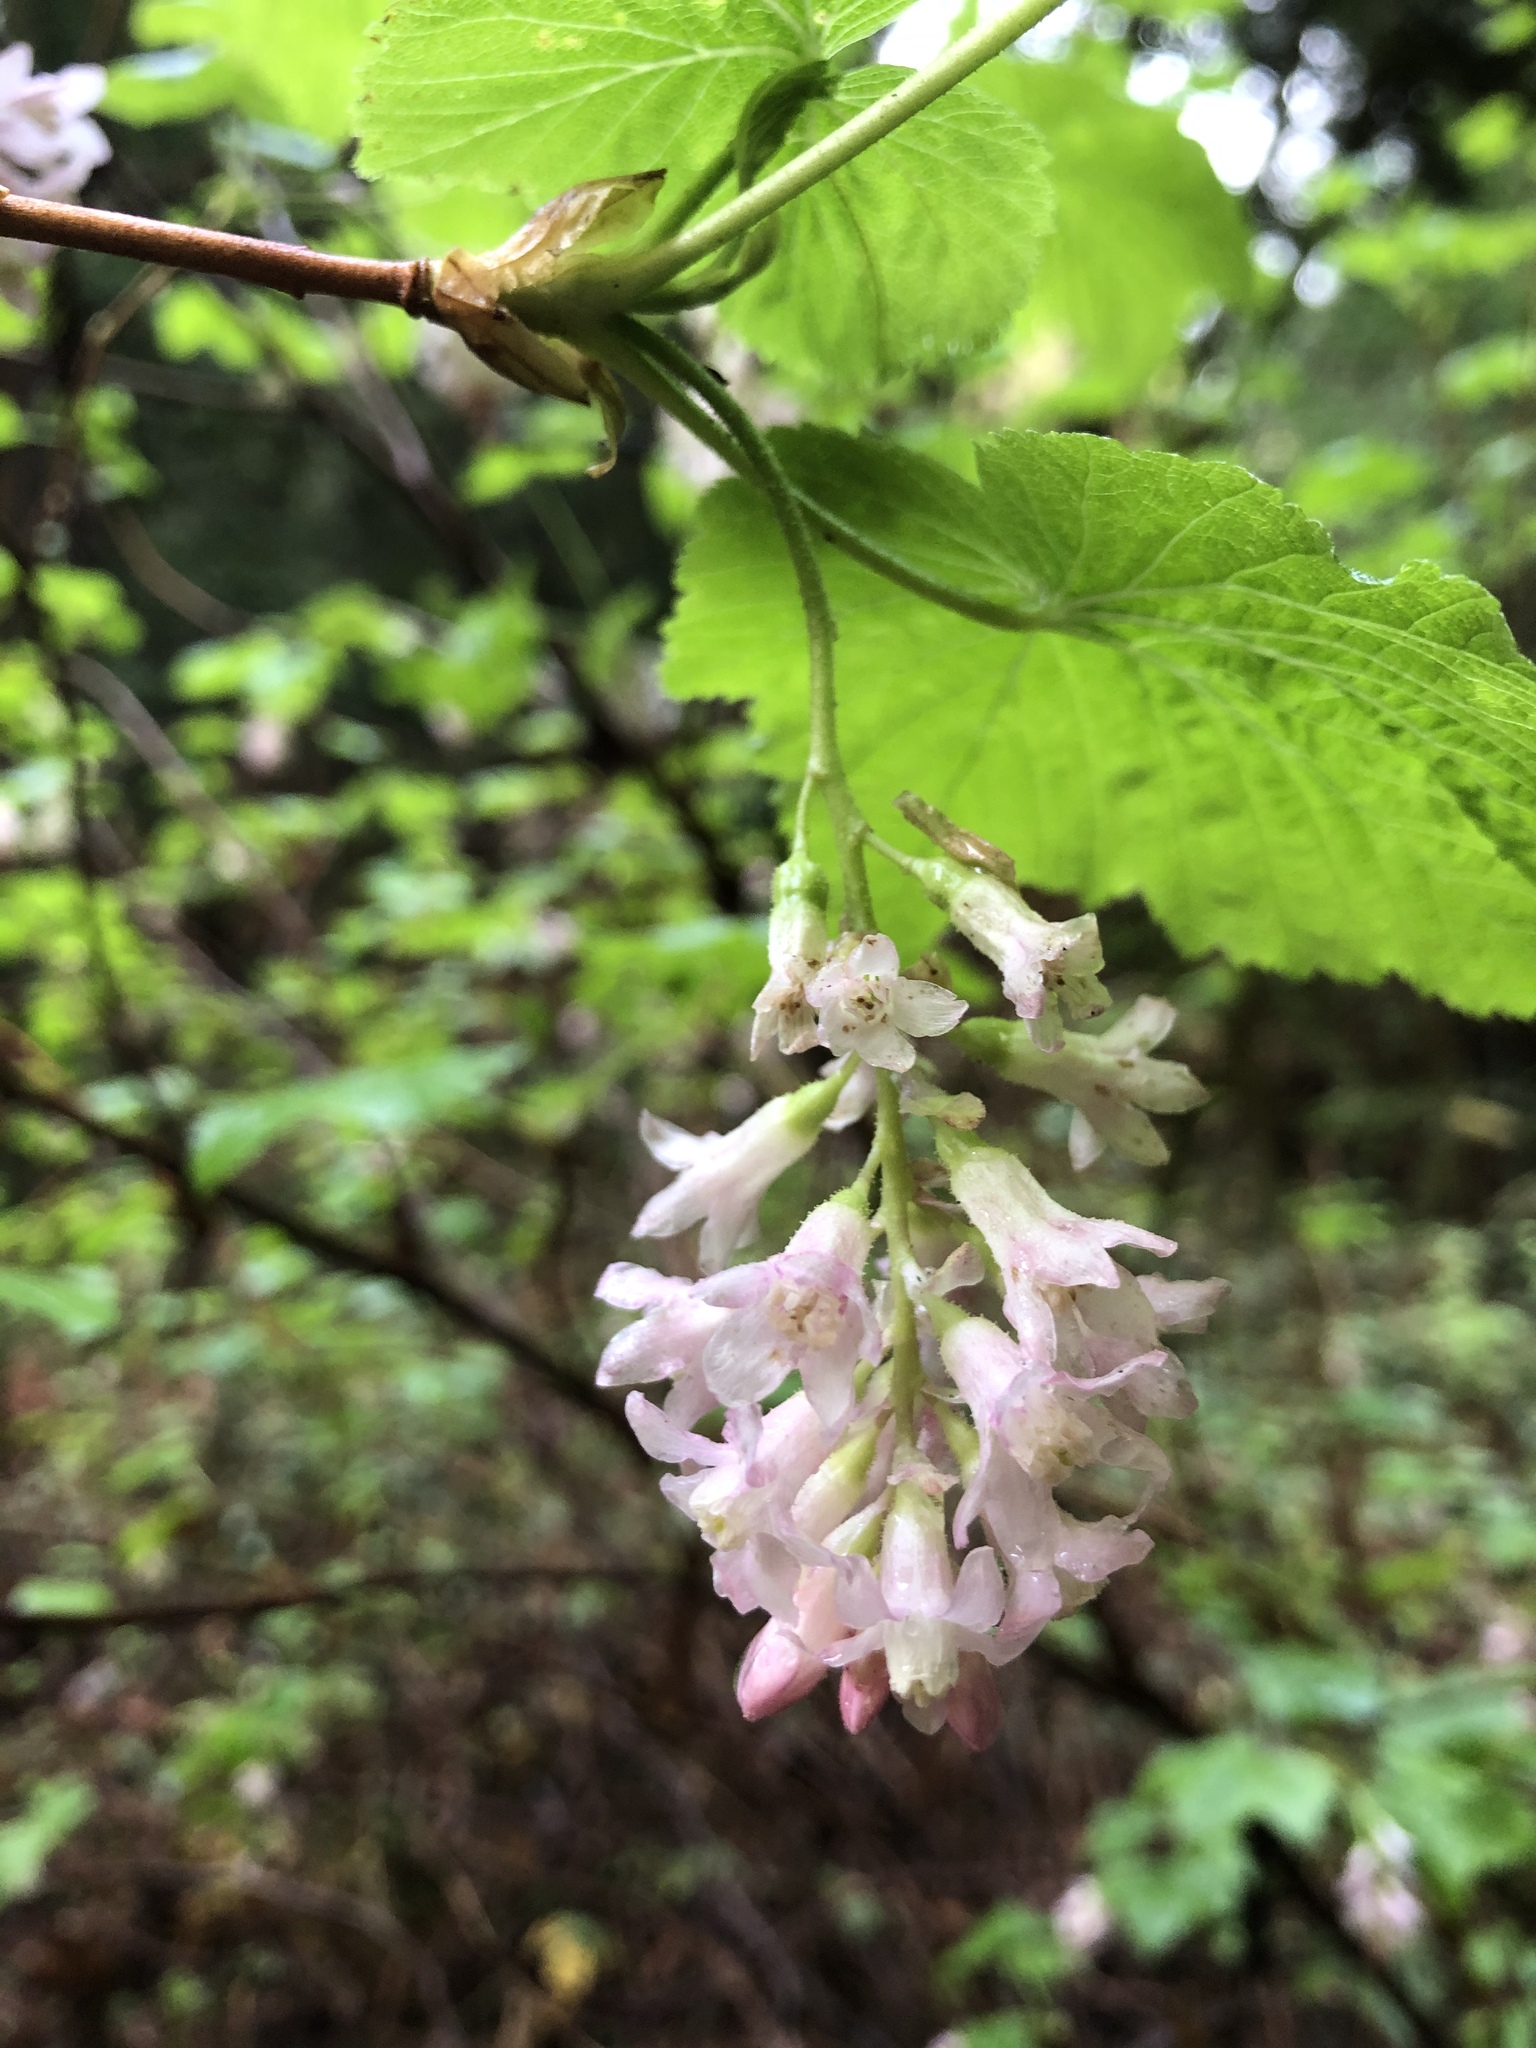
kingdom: Plantae
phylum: Tracheophyta
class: Magnoliopsida
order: Saxifragales
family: Grossulariaceae
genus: Ribes
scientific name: Ribes sanguineum
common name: Flowering currant
